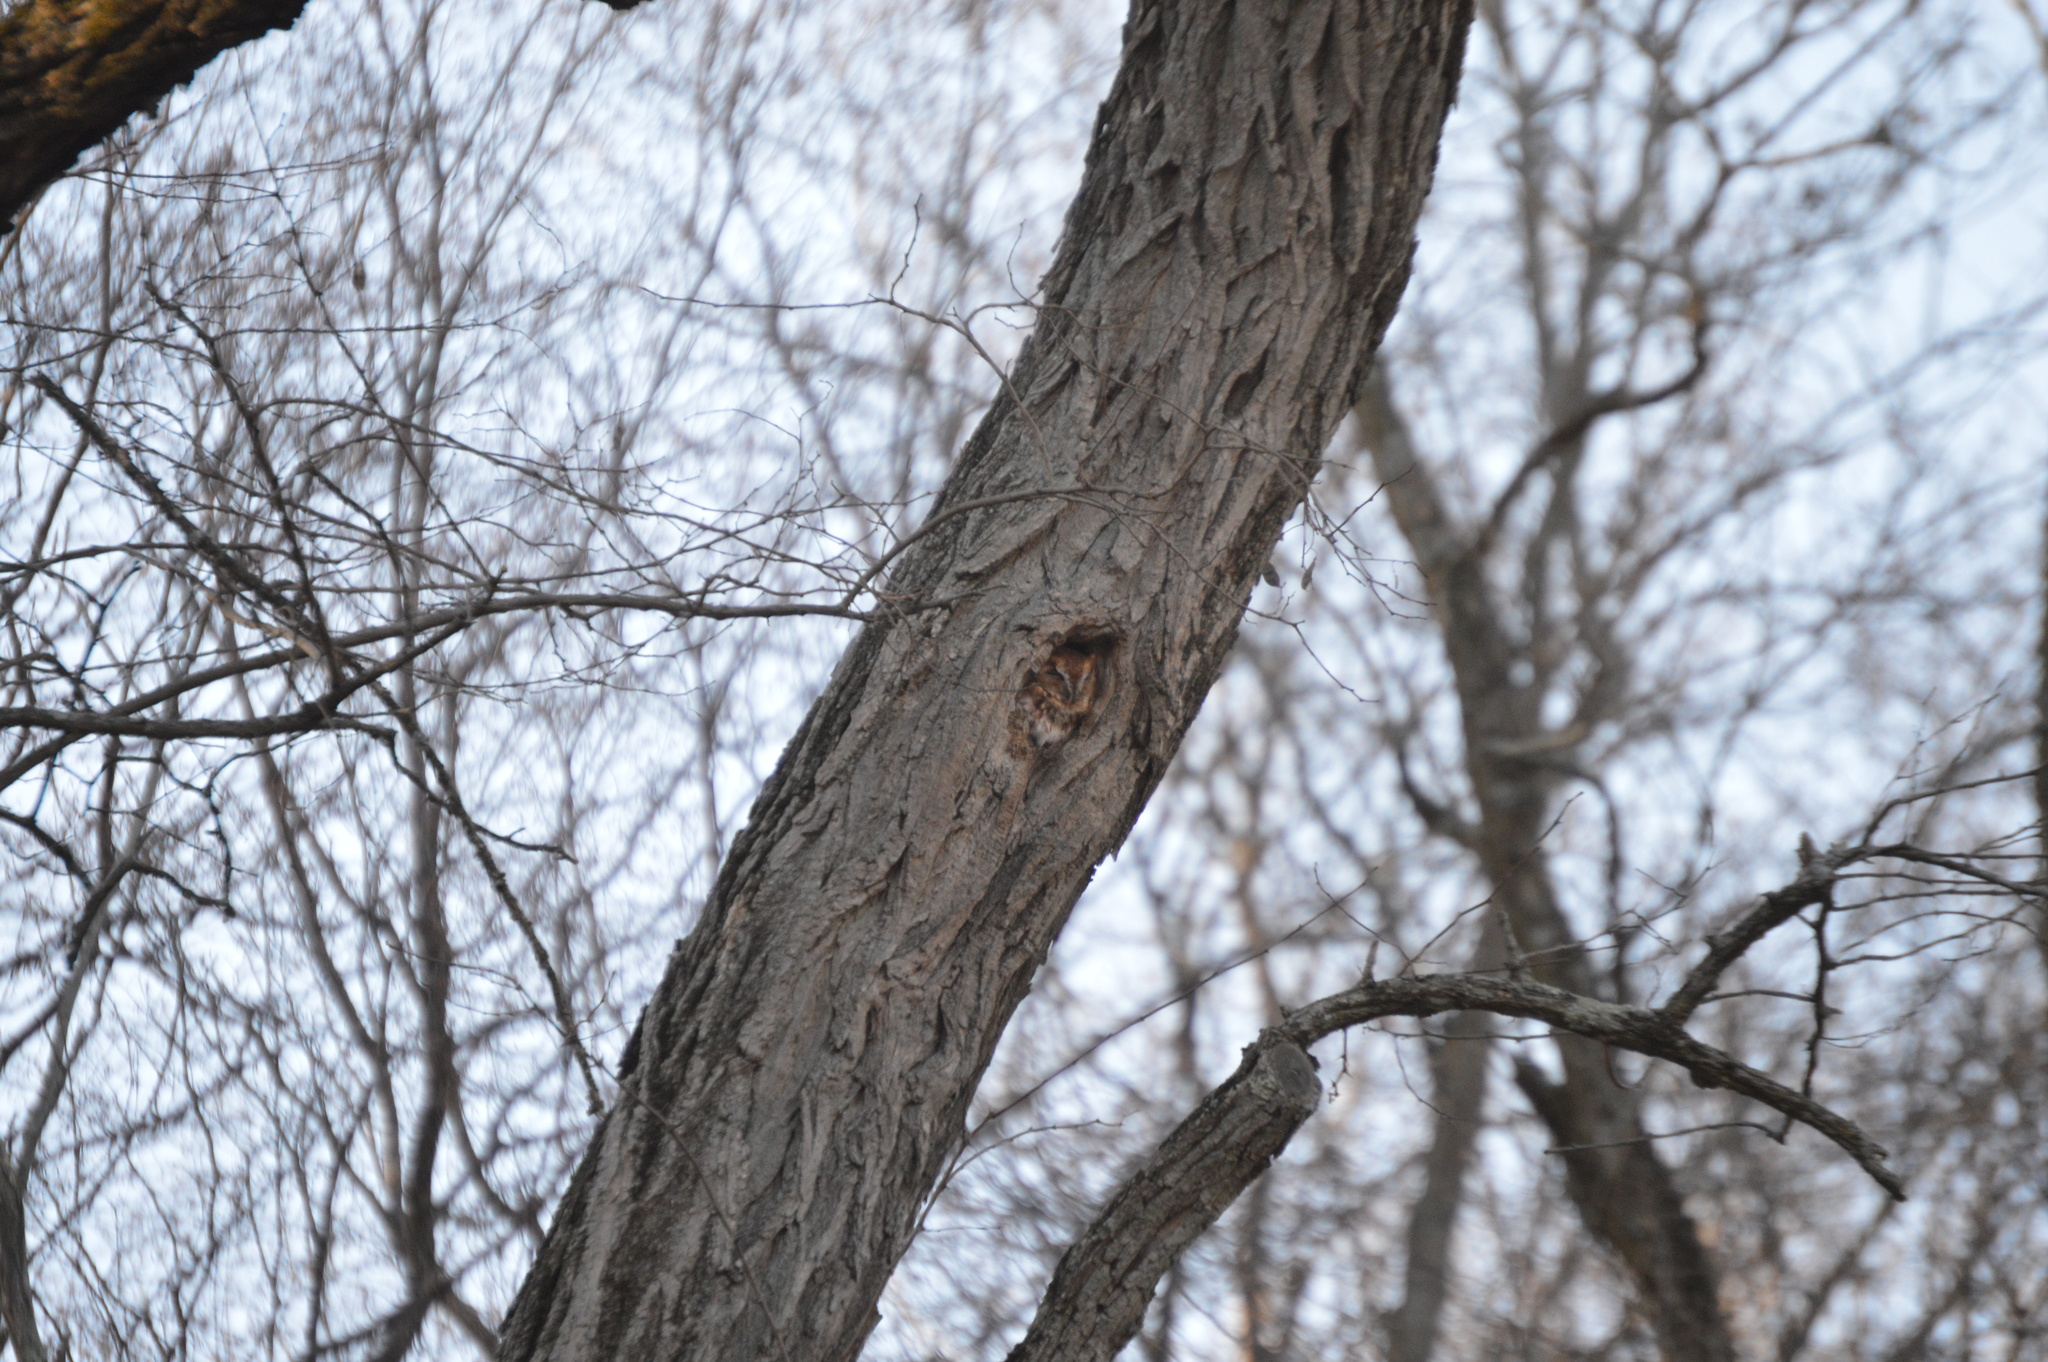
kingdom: Animalia
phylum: Chordata
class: Aves
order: Strigiformes
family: Strigidae
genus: Megascops
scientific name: Megascops asio
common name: Eastern screech-owl
